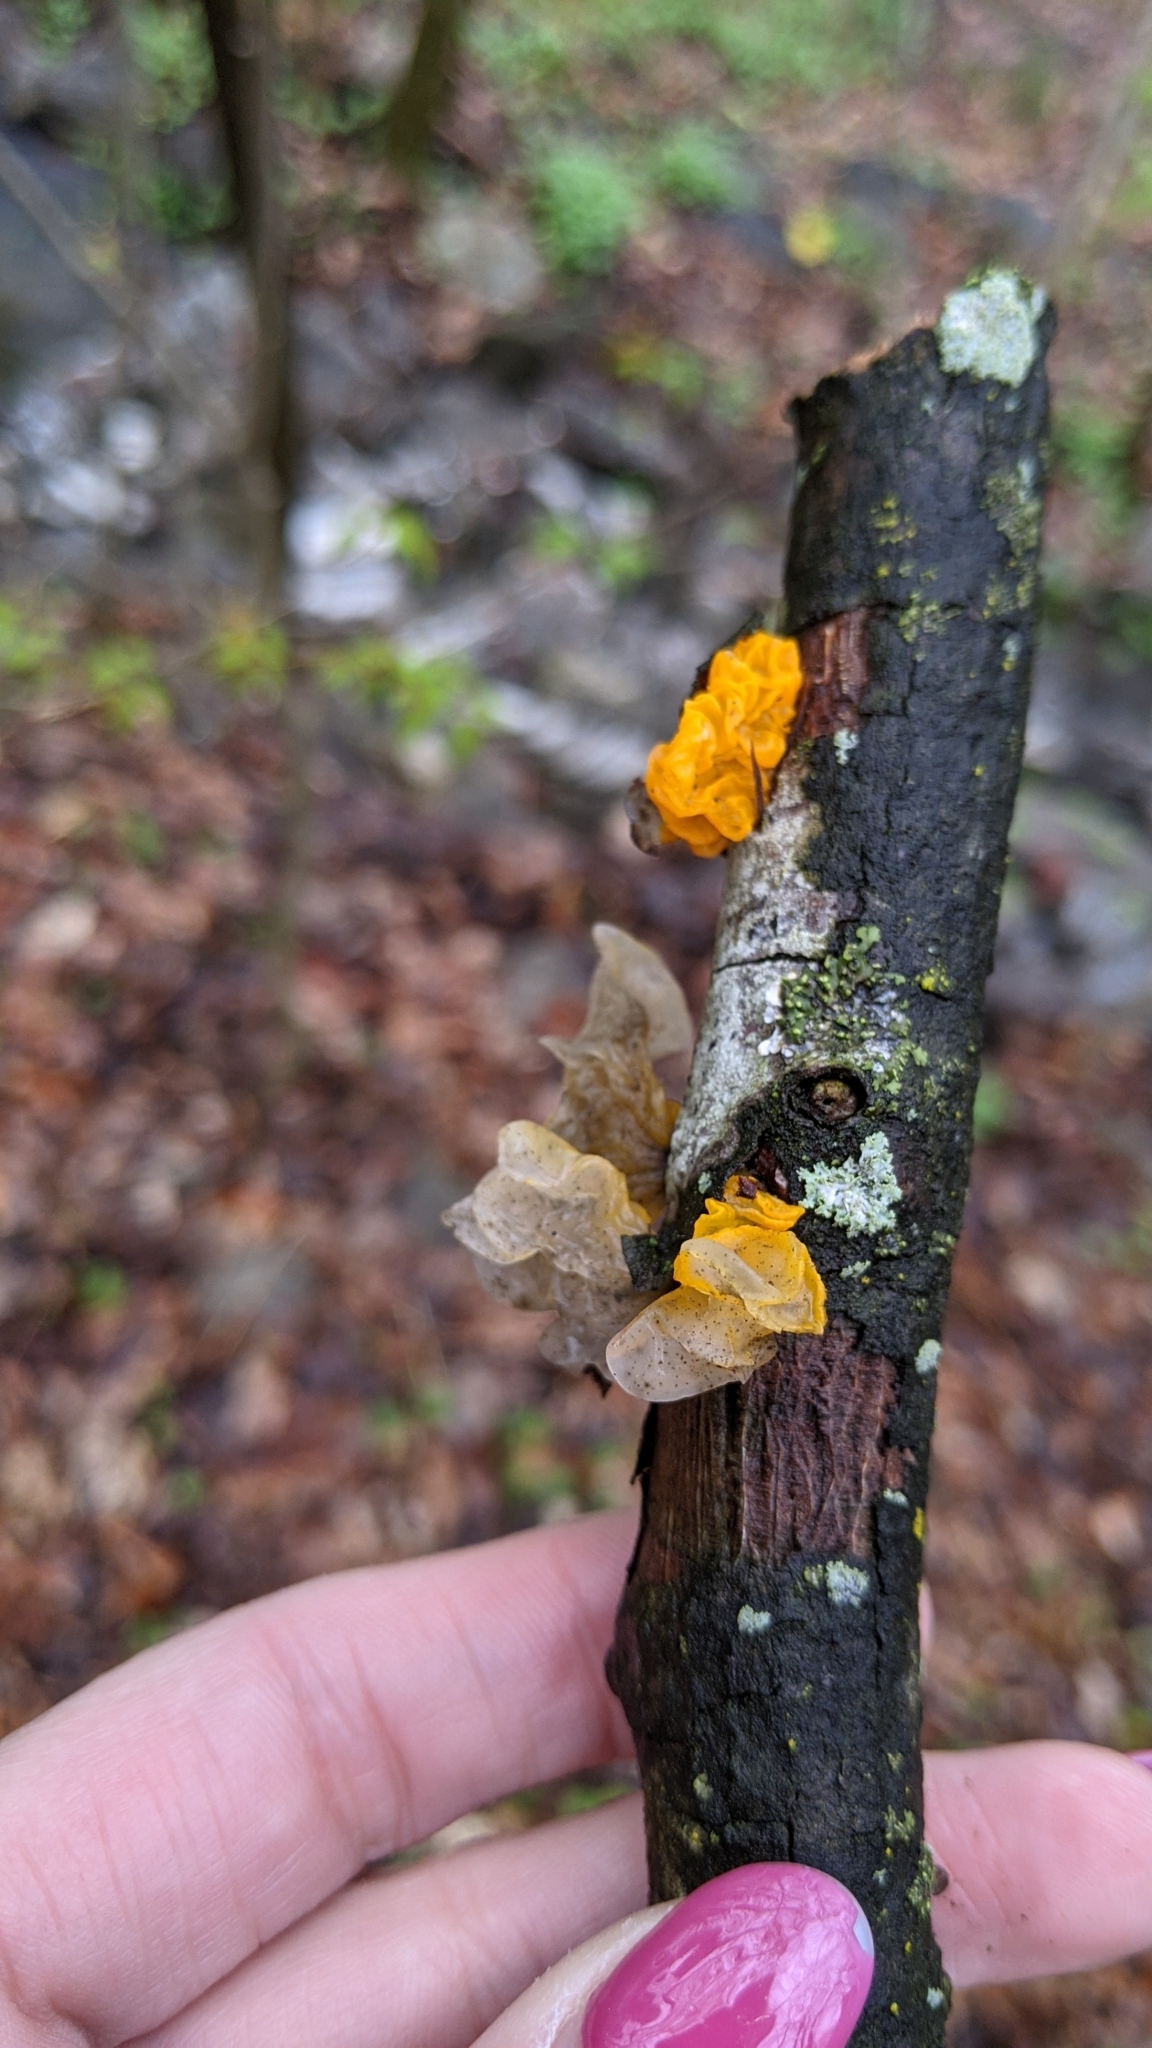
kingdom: Fungi
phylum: Basidiomycota
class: Tremellomycetes
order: Tremellales
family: Tremellaceae
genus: Tremella
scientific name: Tremella mesenterica
